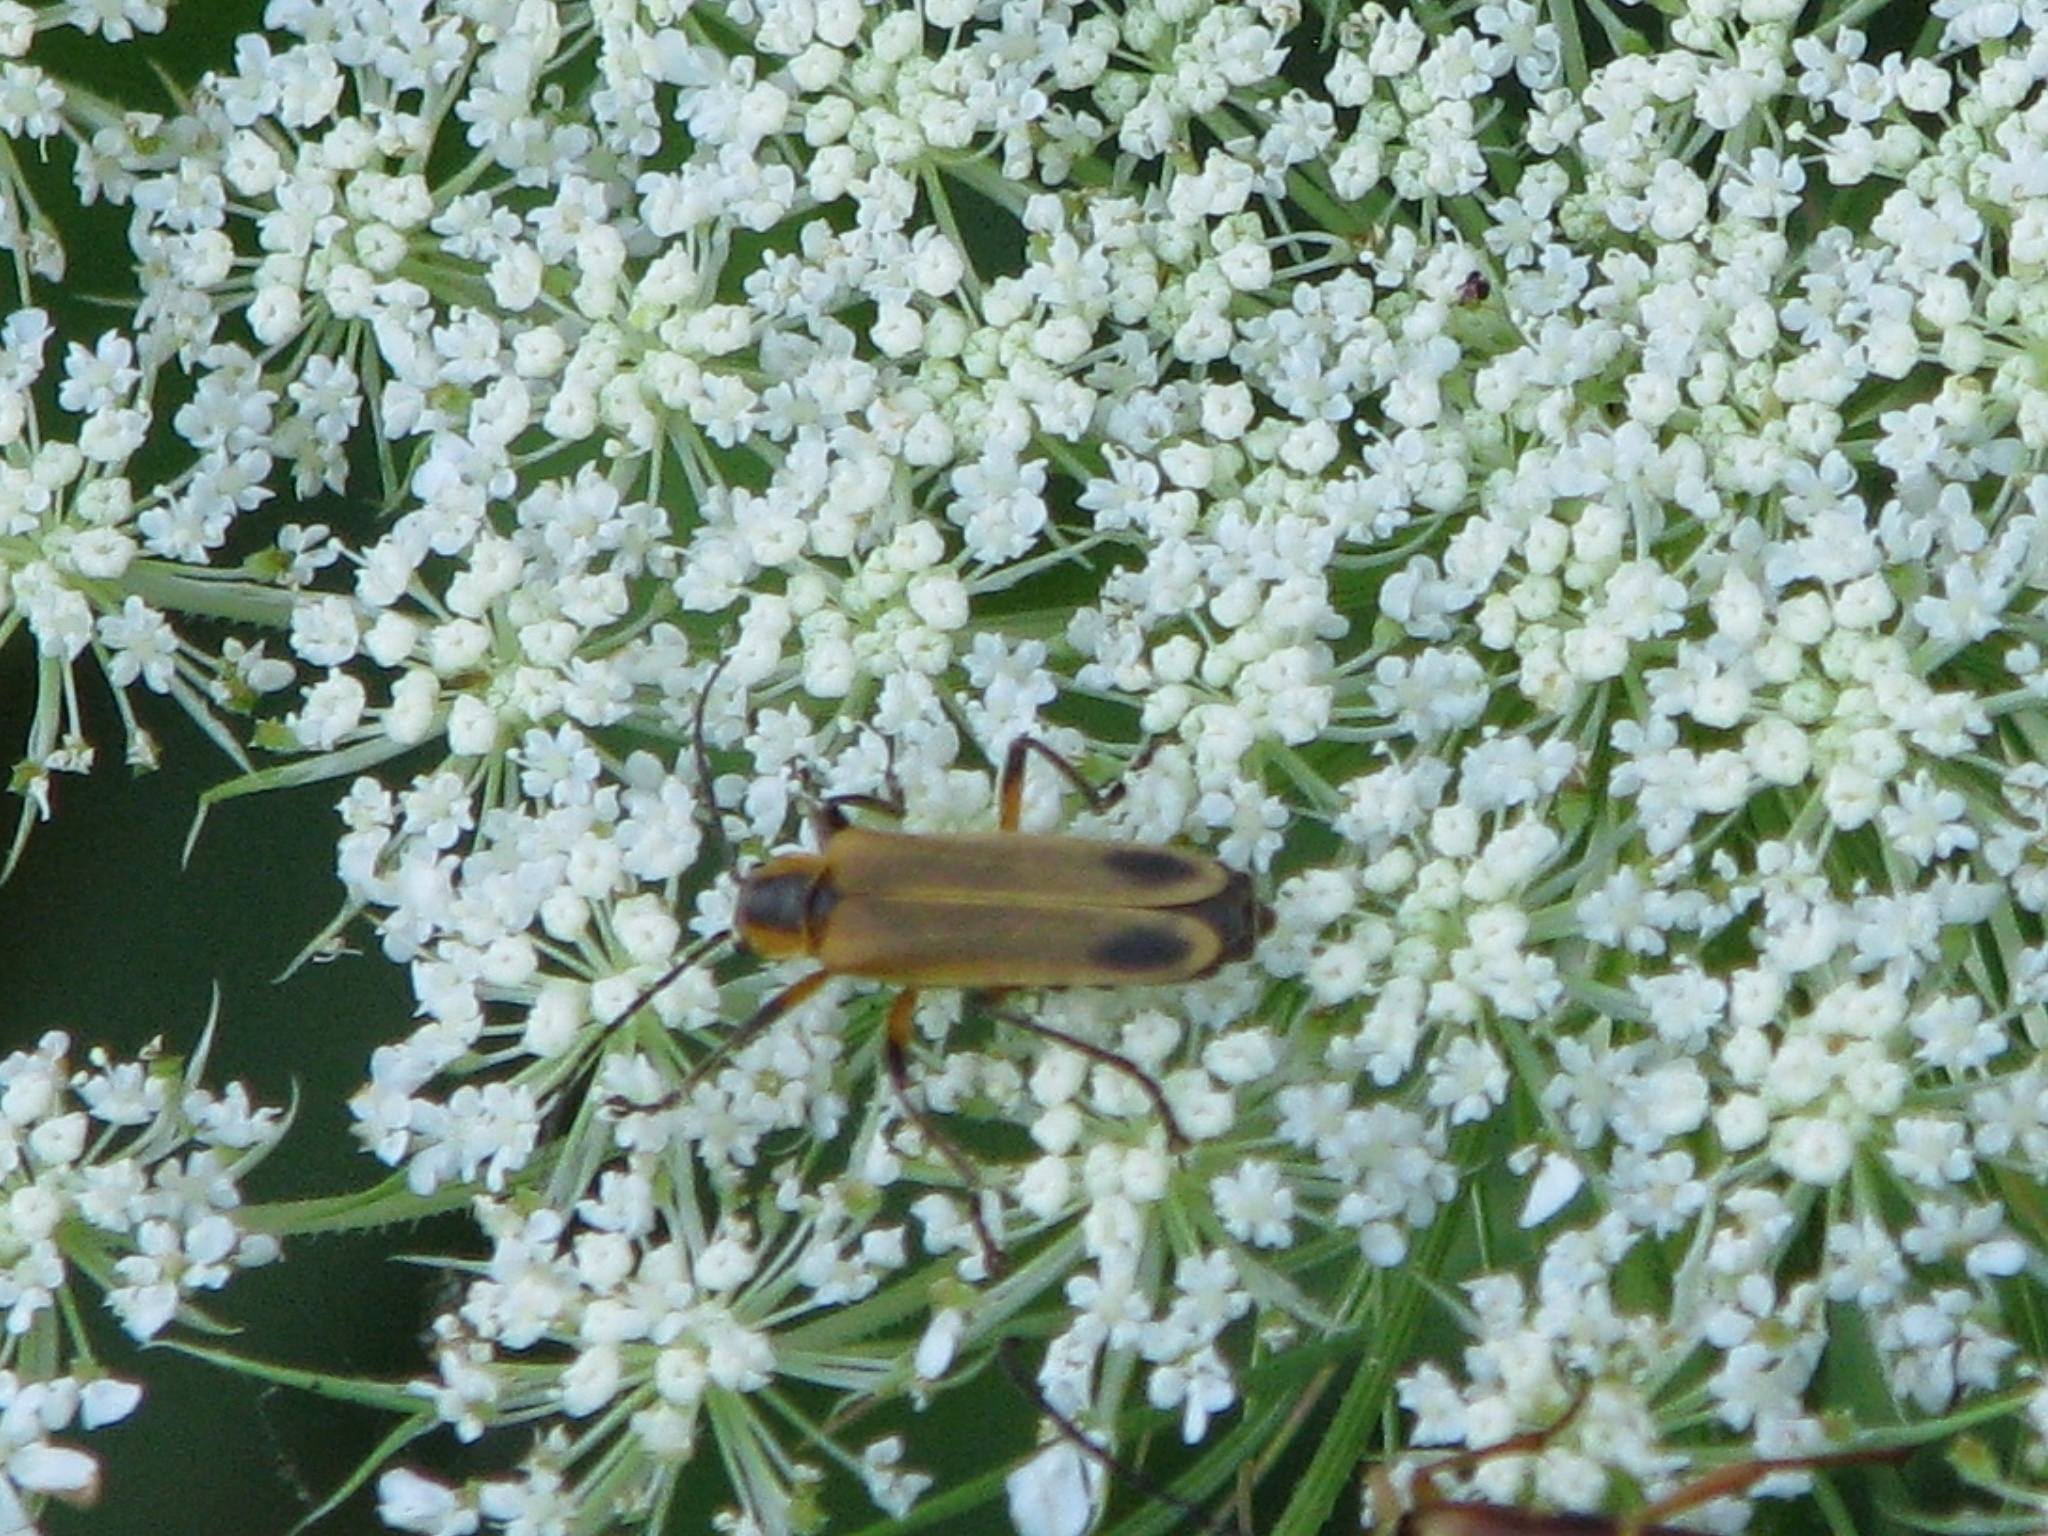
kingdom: Animalia
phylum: Arthropoda
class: Insecta
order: Coleoptera
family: Cantharidae
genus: Chauliognathus
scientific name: Chauliognathus marginatus
